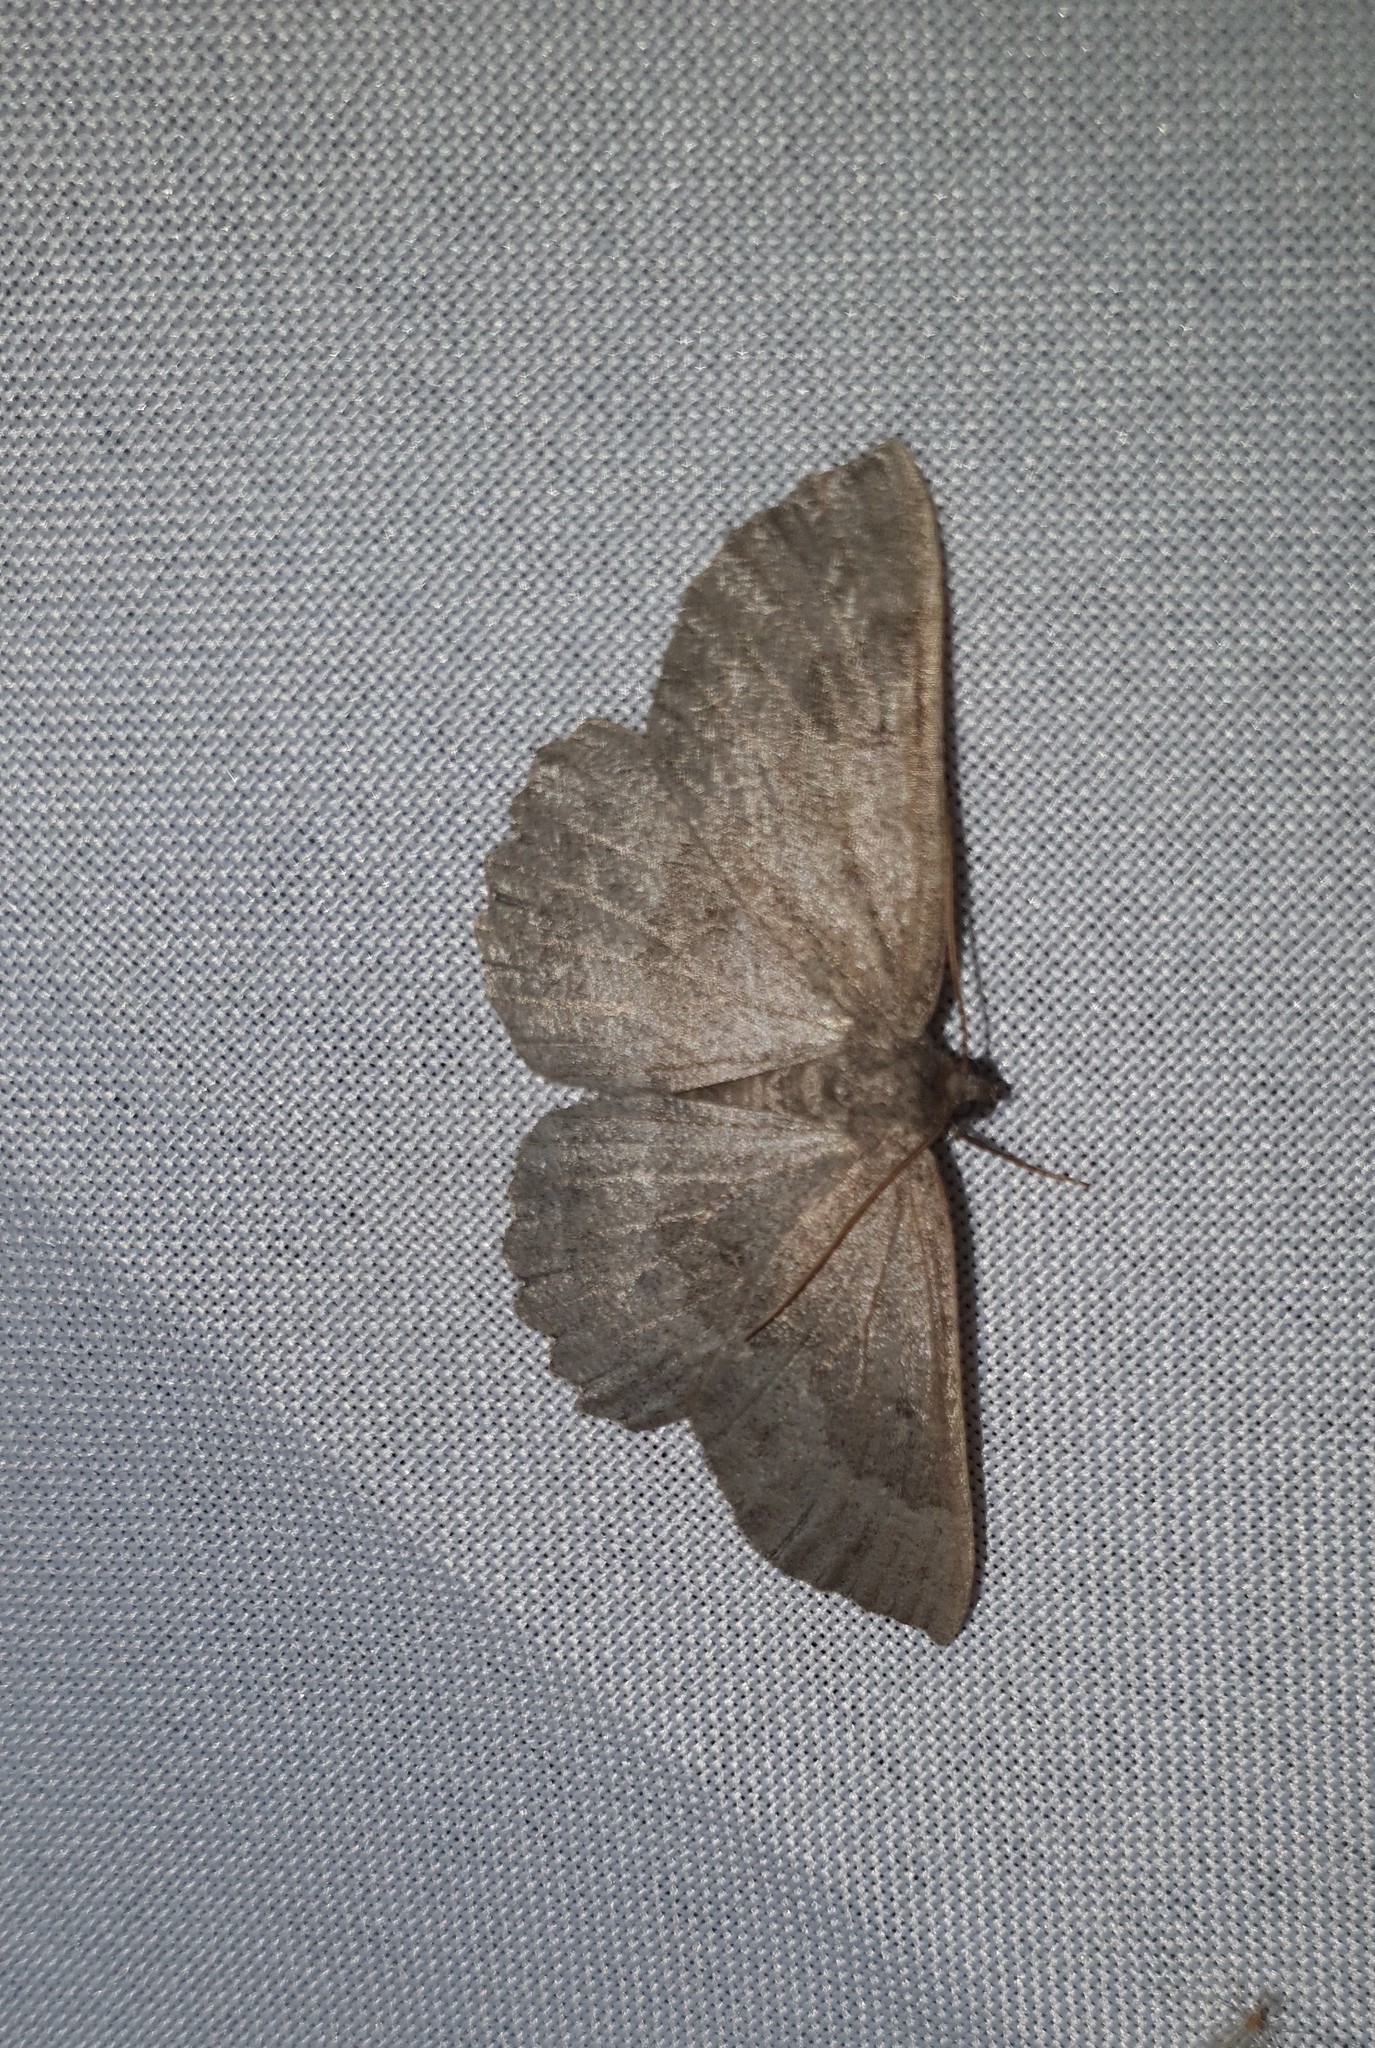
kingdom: Animalia
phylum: Arthropoda
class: Insecta
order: Lepidoptera
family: Geometridae
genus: Gnophos
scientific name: Gnophos furvata
